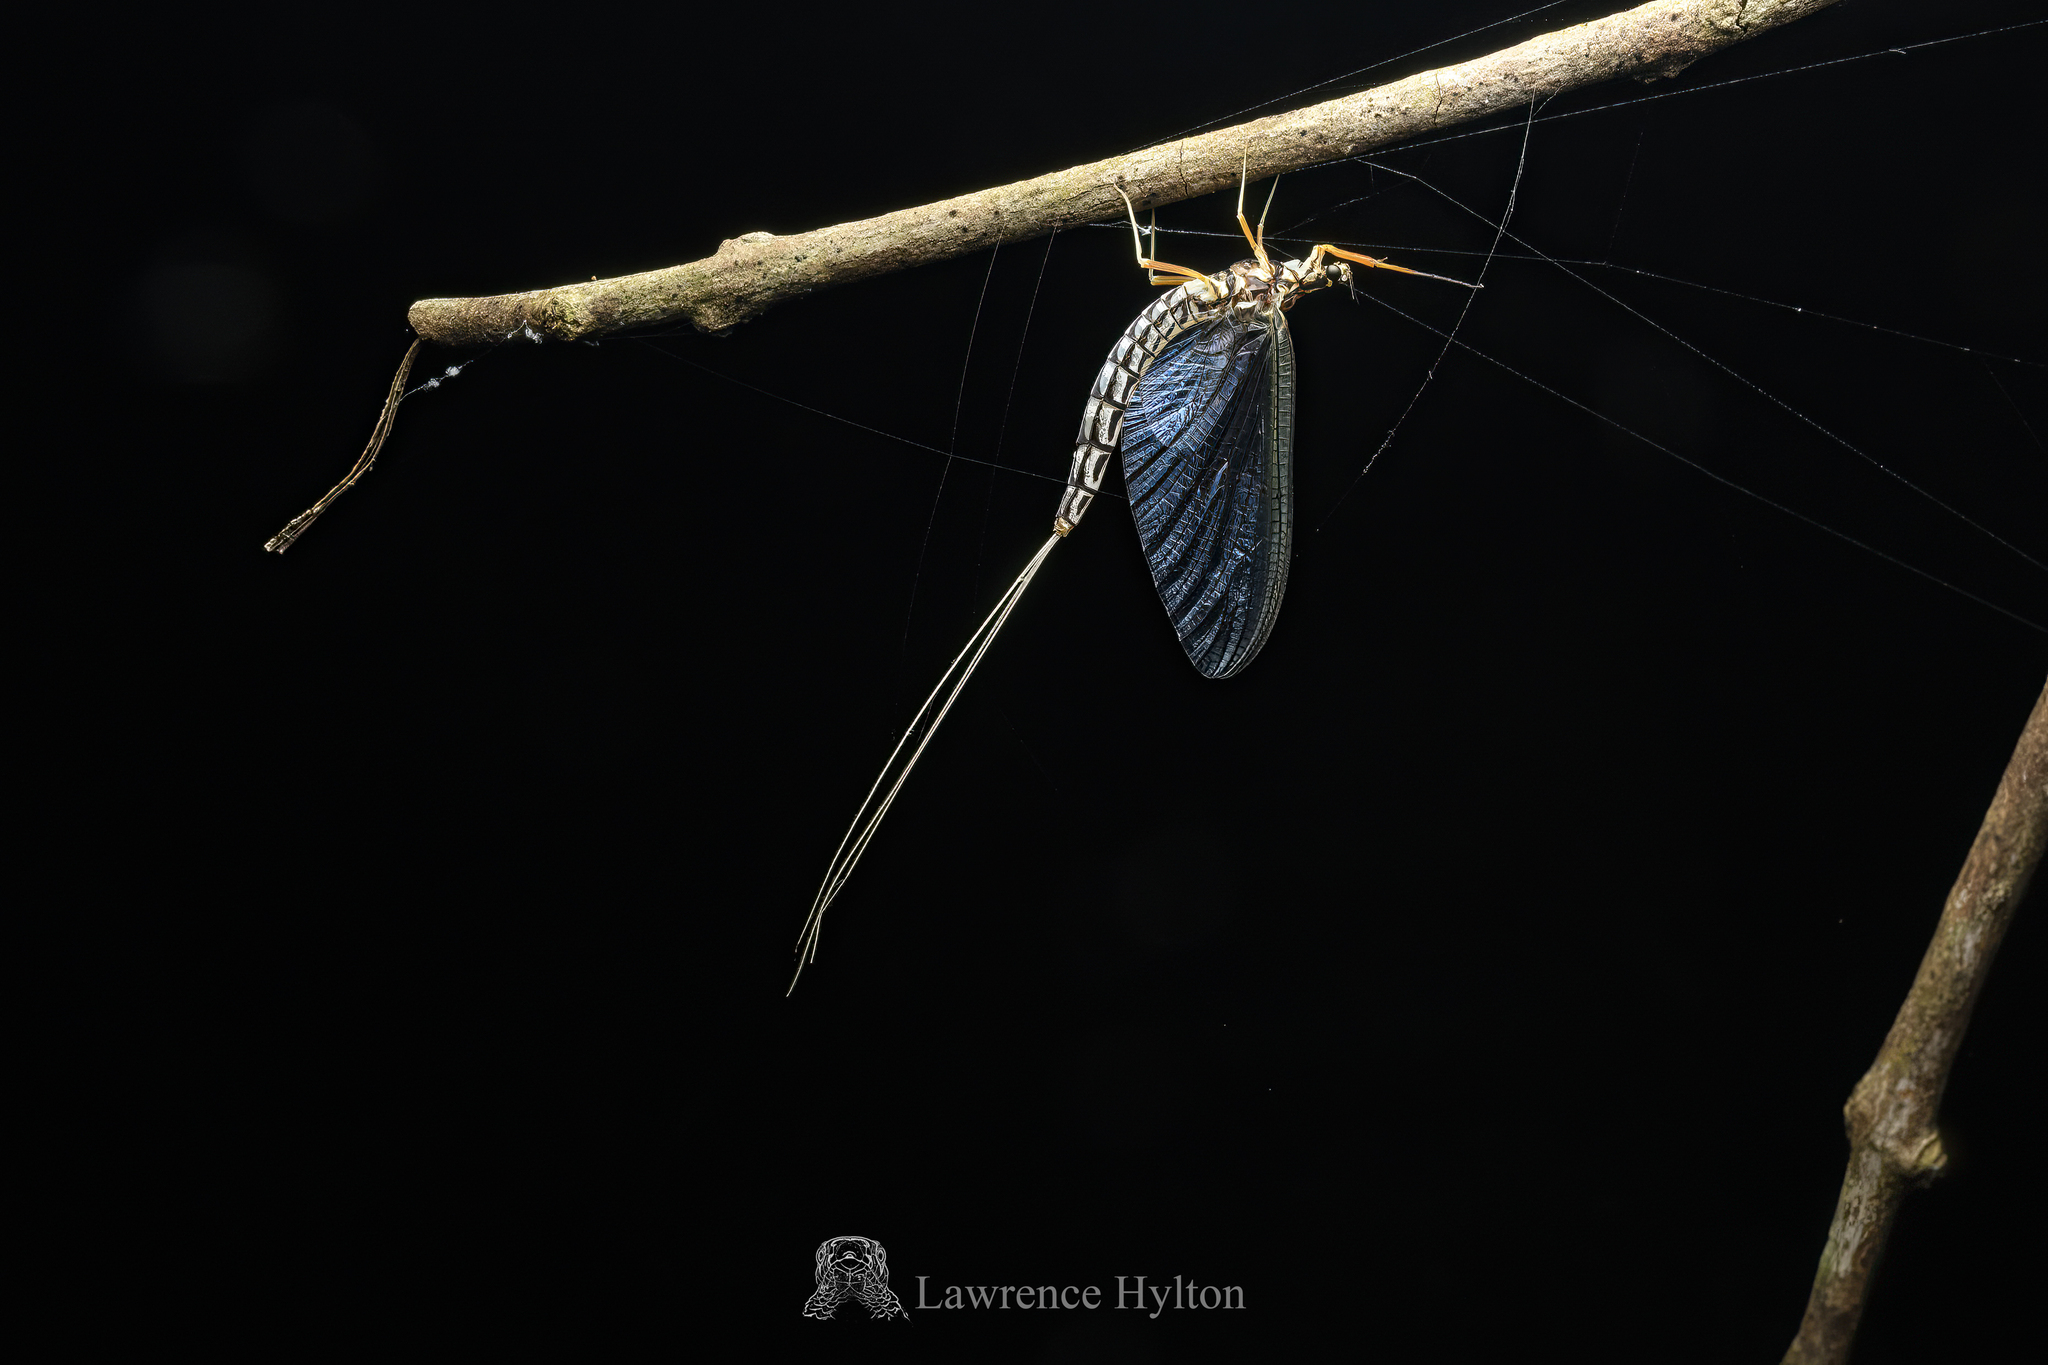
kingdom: Animalia
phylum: Arthropoda
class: Insecta
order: Ephemeroptera
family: Ephemeridae
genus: Ephemera
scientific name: Ephemera
